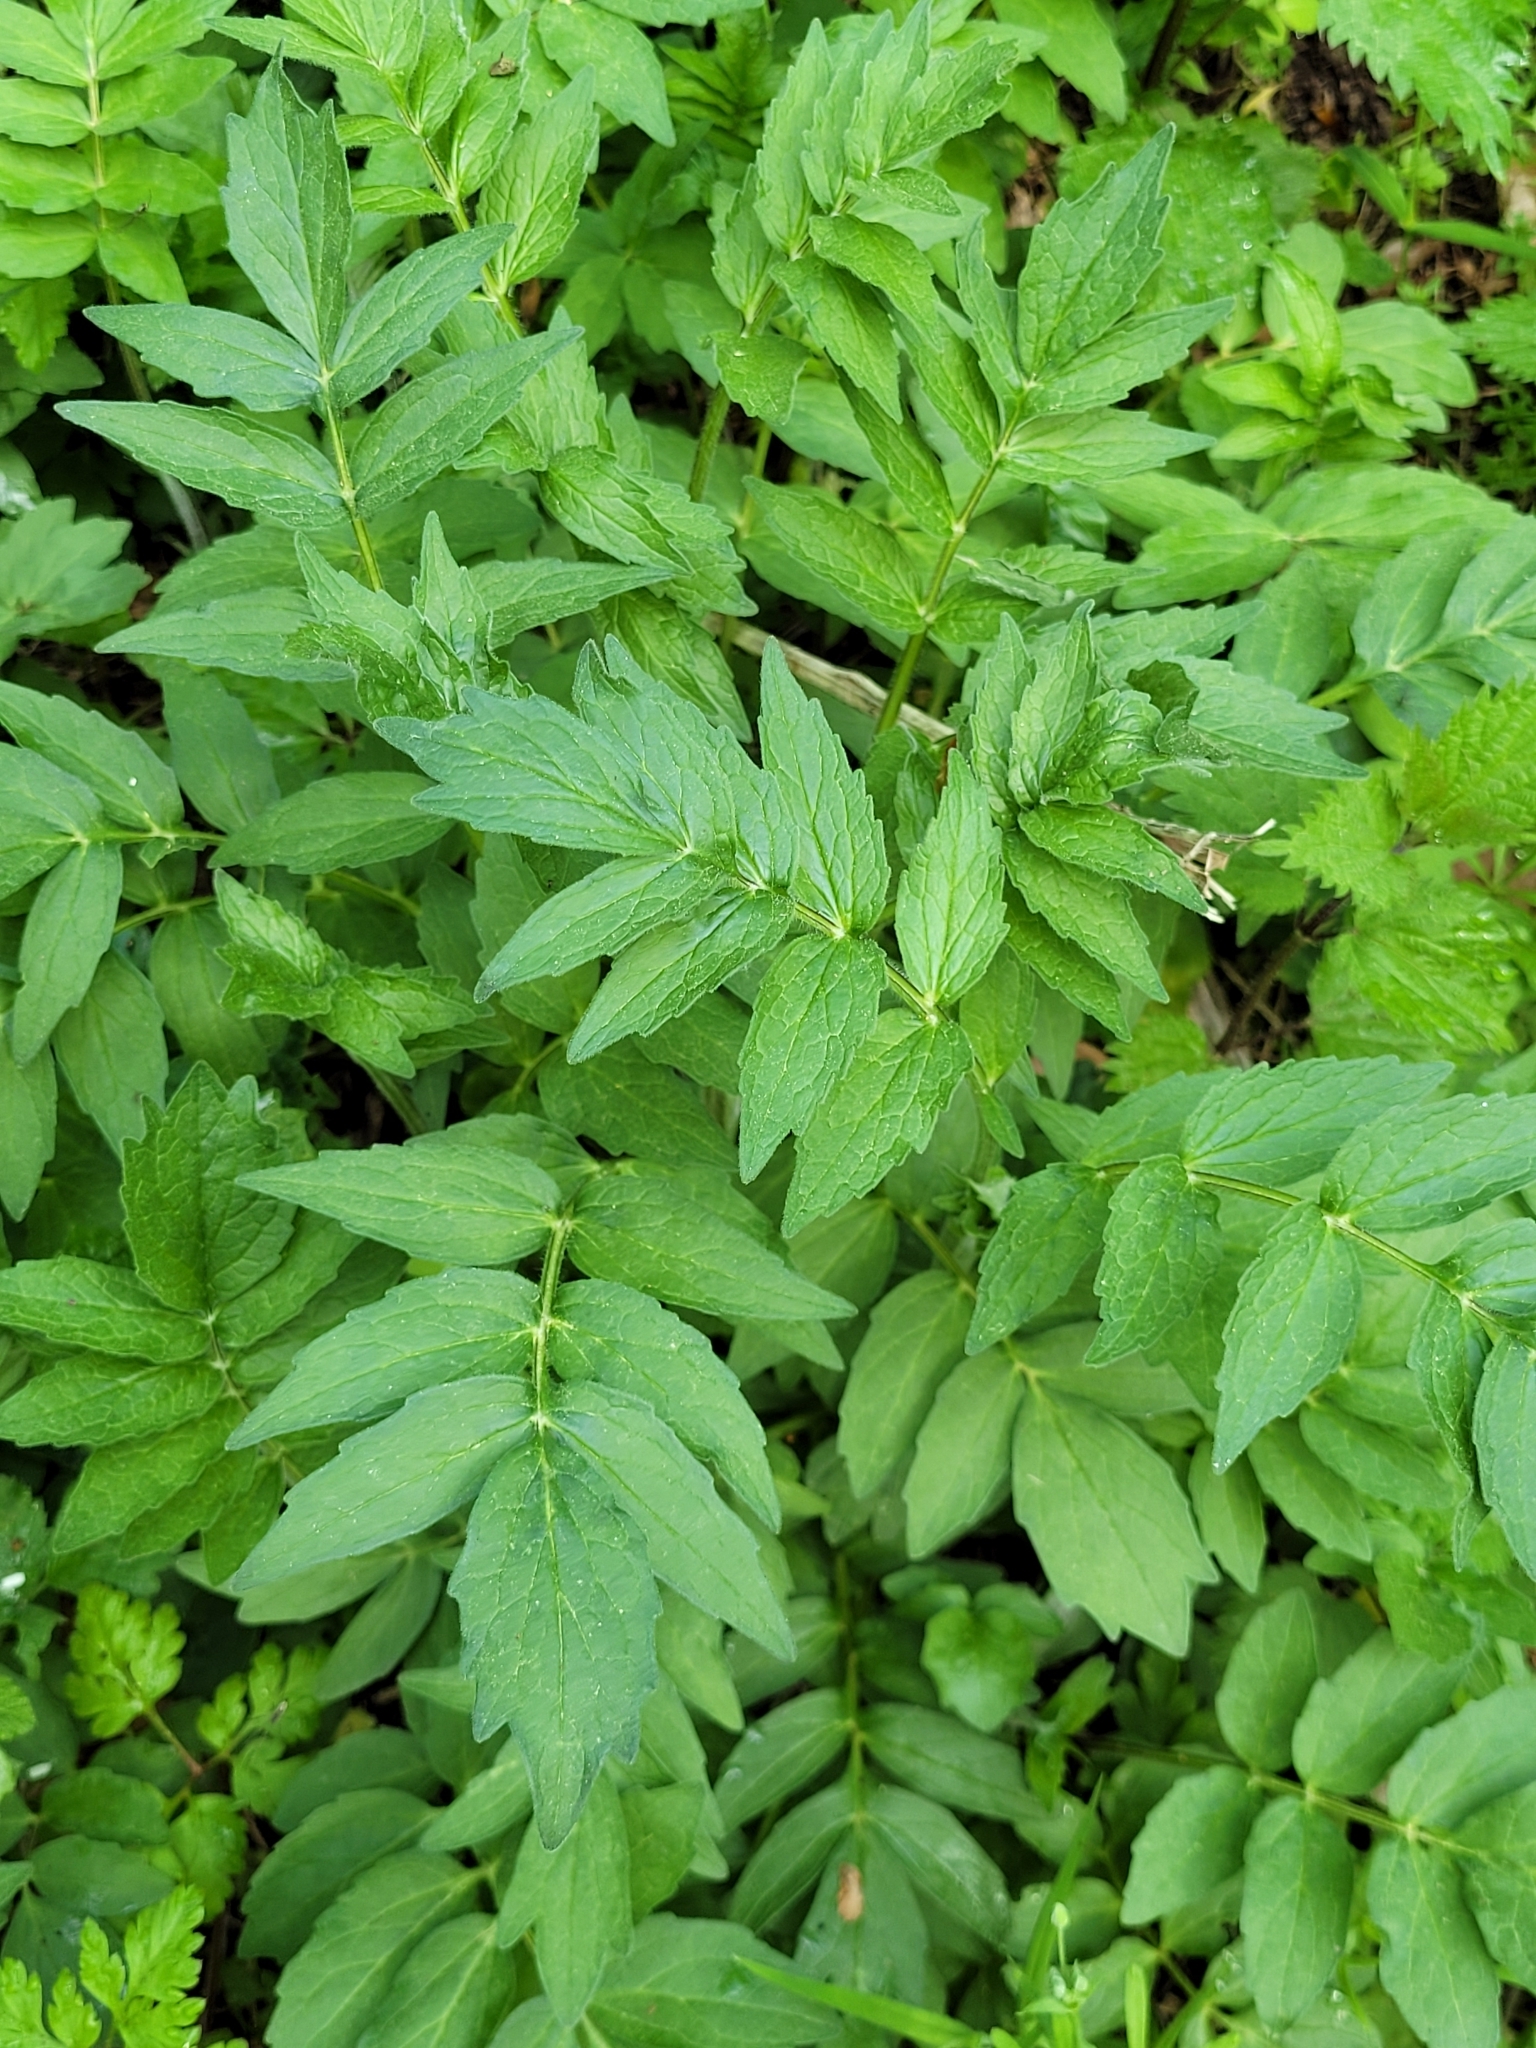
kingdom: Plantae
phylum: Tracheophyta
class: Magnoliopsida
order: Dipsacales
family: Caprifoliaceae
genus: Valeriana
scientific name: Valeriana officinalis
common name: Common valerian
